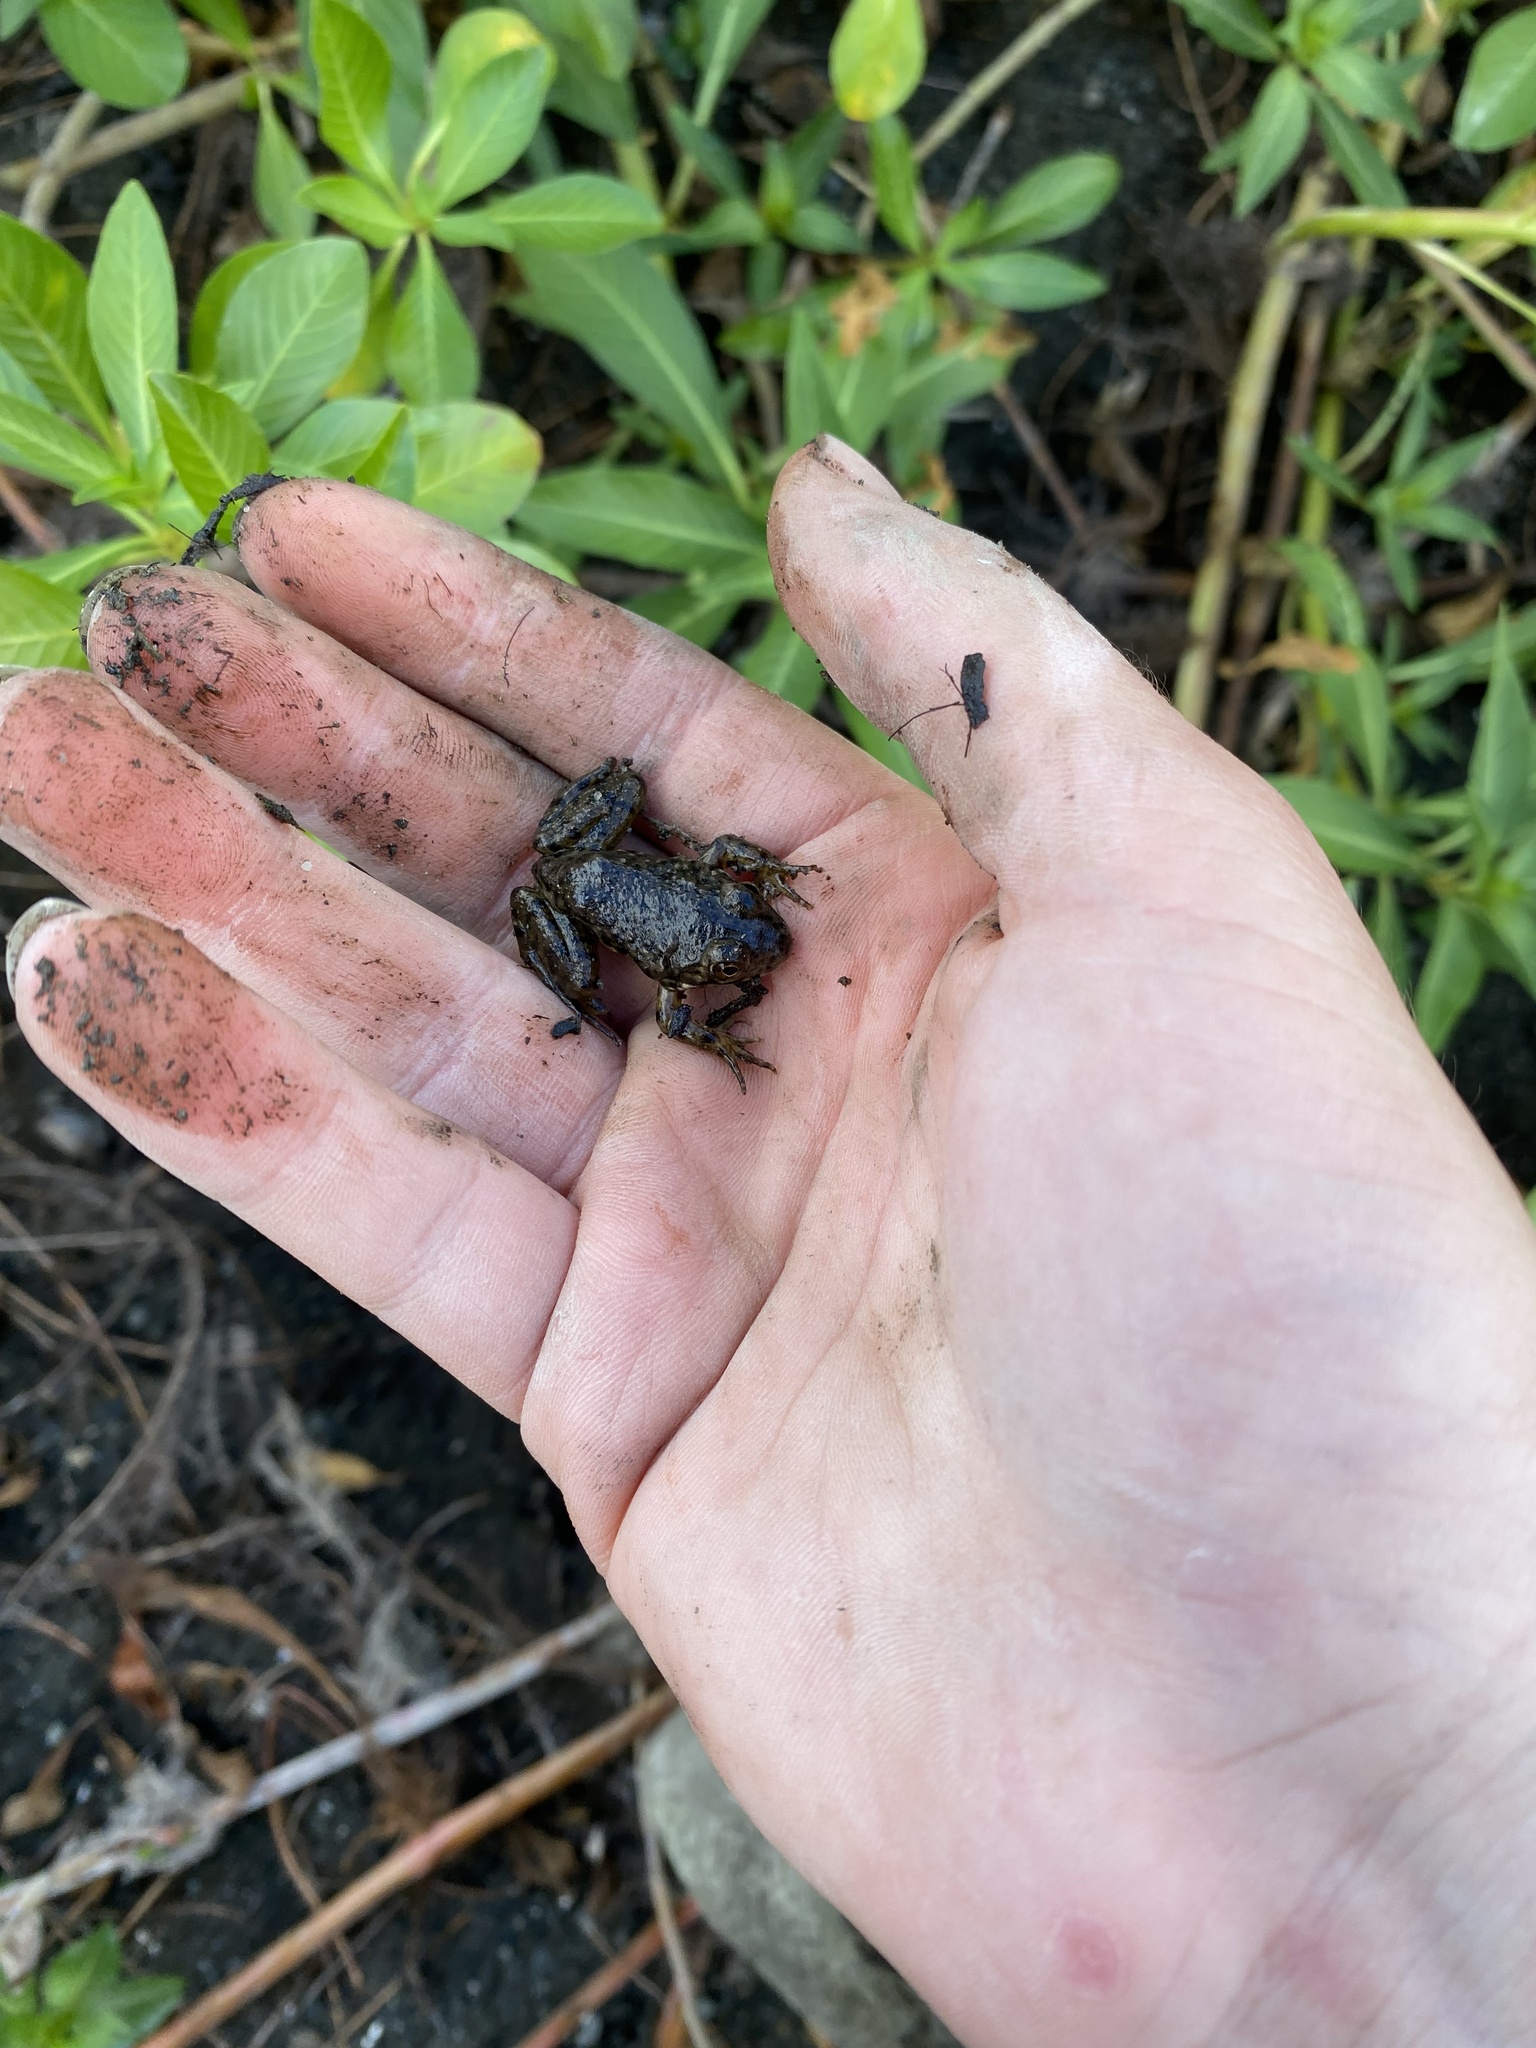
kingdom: Animalia
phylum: Chordata
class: Amphibia
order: Anura
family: Ranidae
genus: Lithobates
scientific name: Lithobates catesbeianus
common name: American bullfrog
